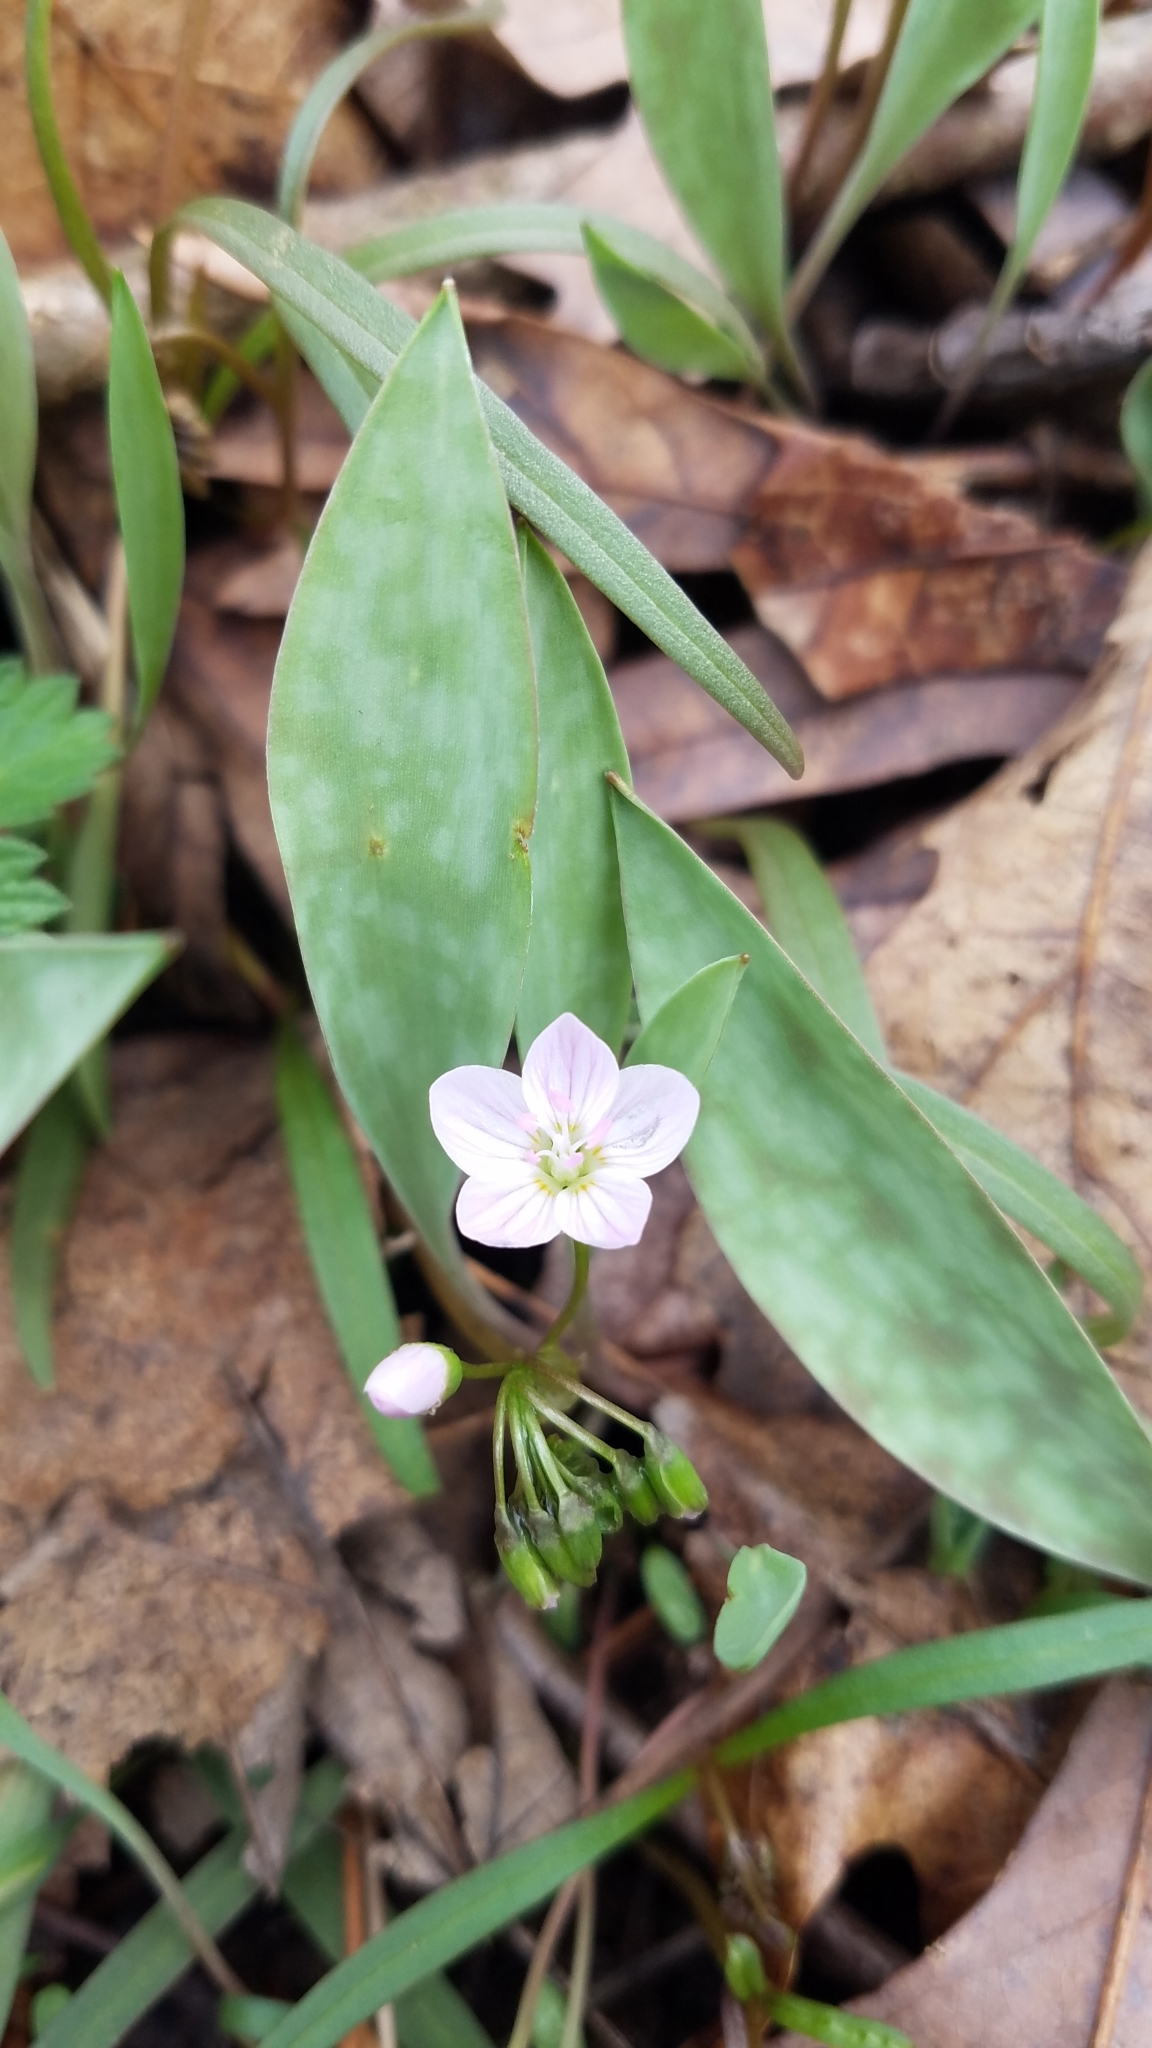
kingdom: Plantae
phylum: Tracheophyta
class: Magnoliopsida
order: Caryophyllales
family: Montiaceae
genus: Claytonia
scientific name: Claytonia virginica
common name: Virginia springbeauty
